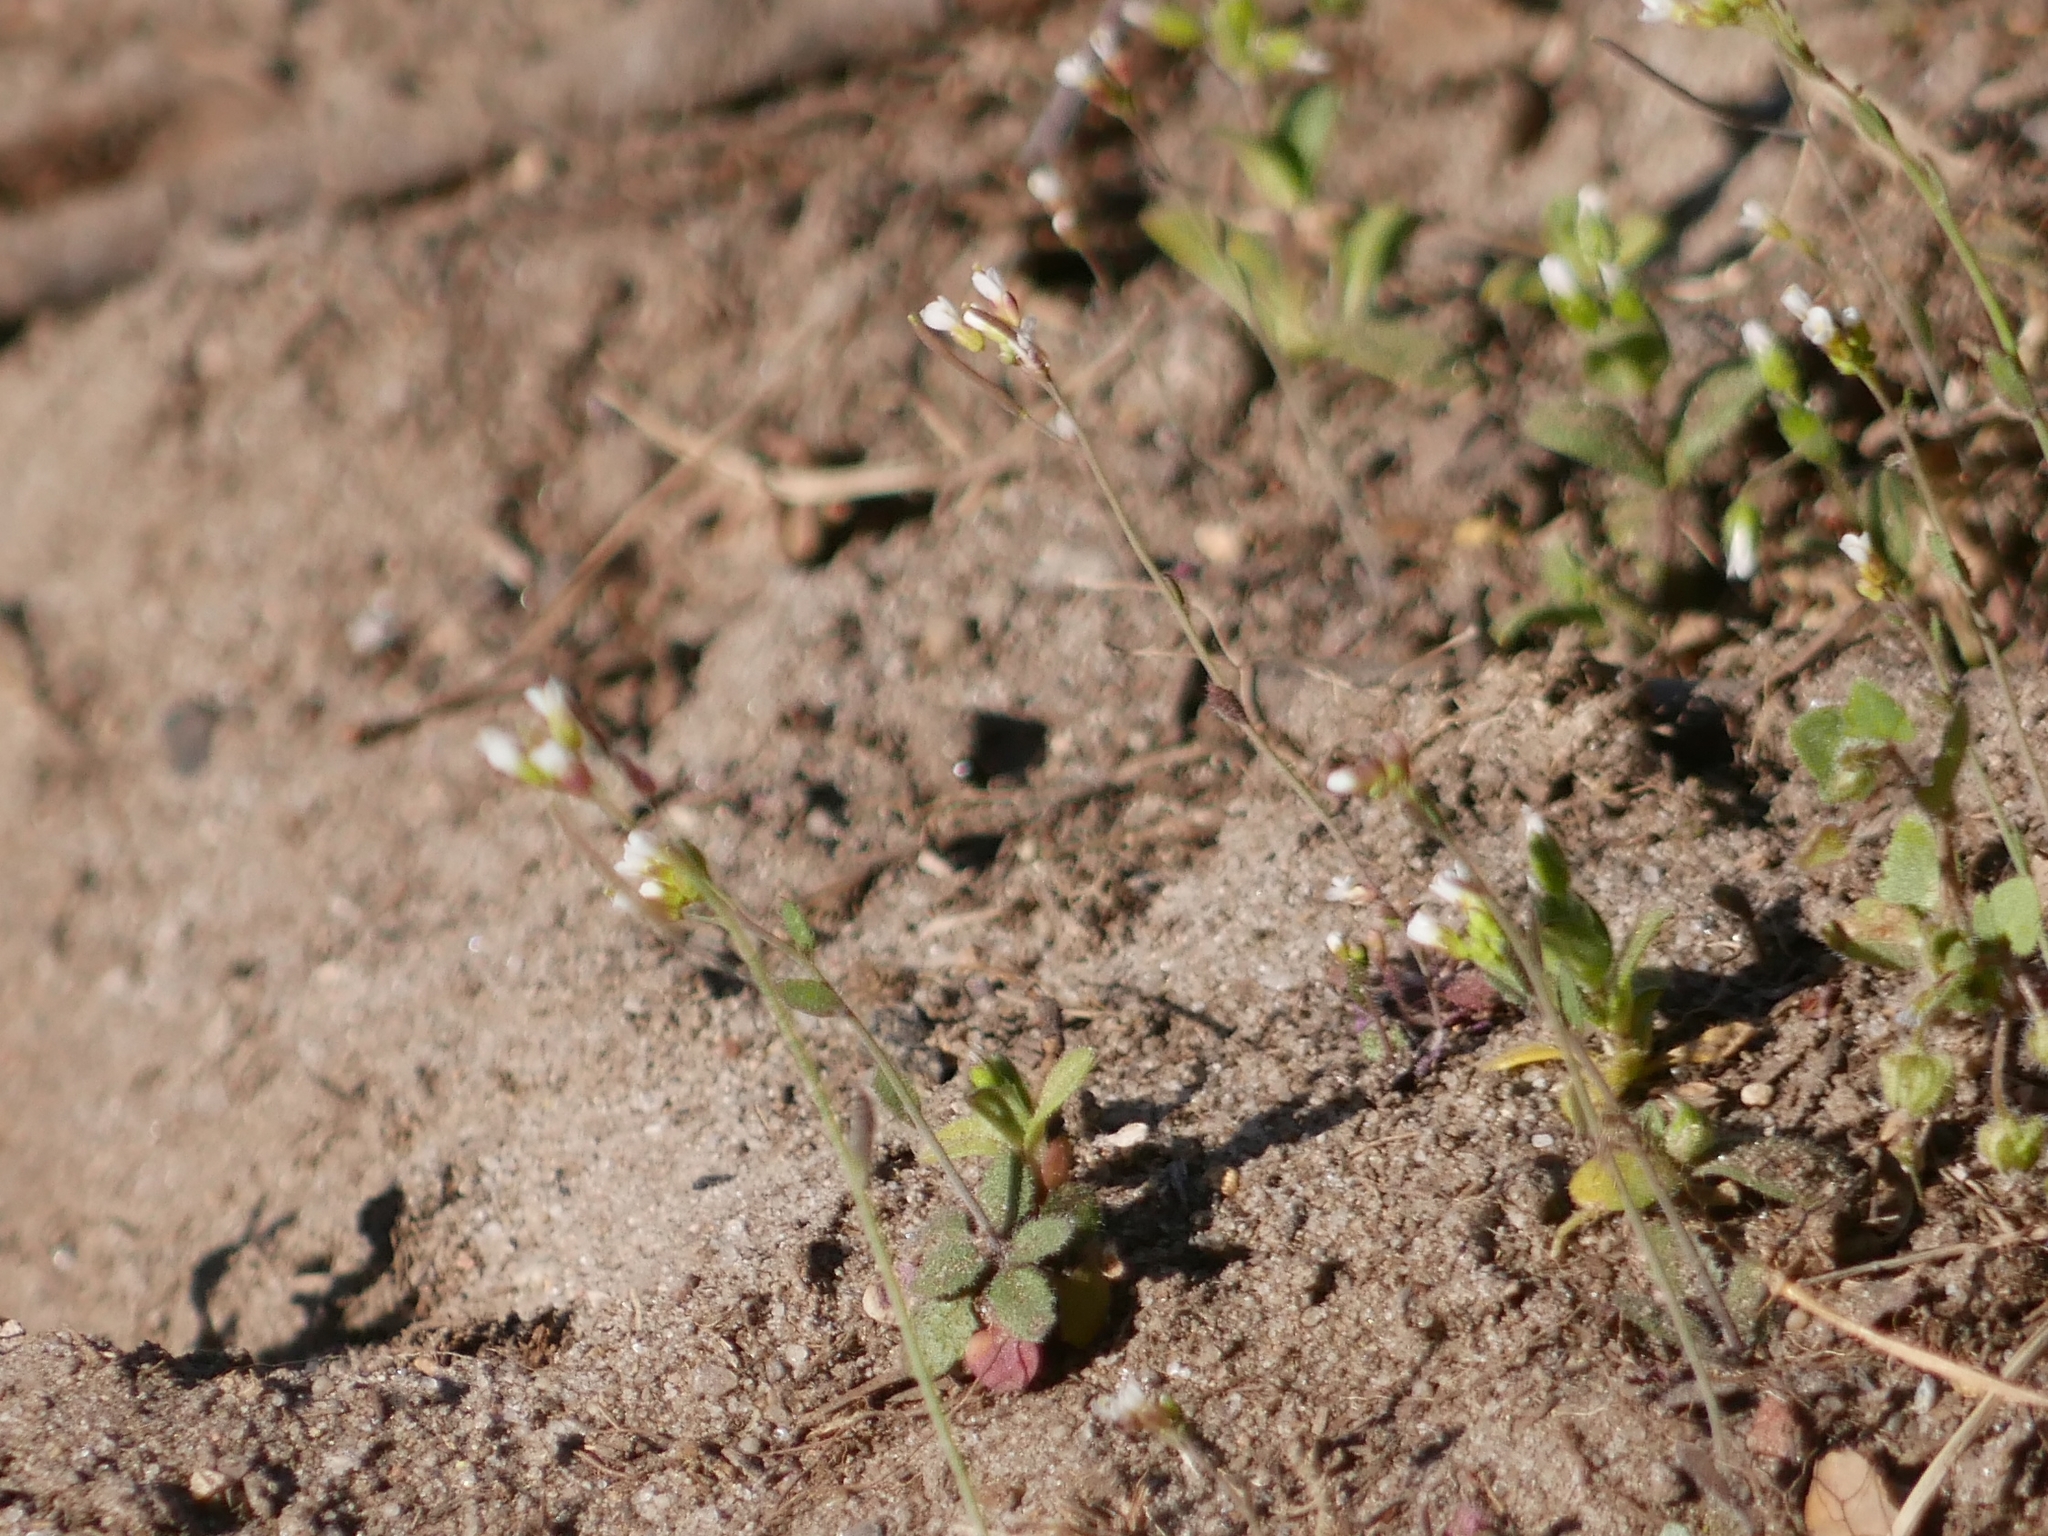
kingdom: Plantae
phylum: Tracheophyta
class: Magnoliopsida
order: Brassicales
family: Brassicaceae
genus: Arabidopsis
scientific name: Arabidopsis thaliana
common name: Thale cress
